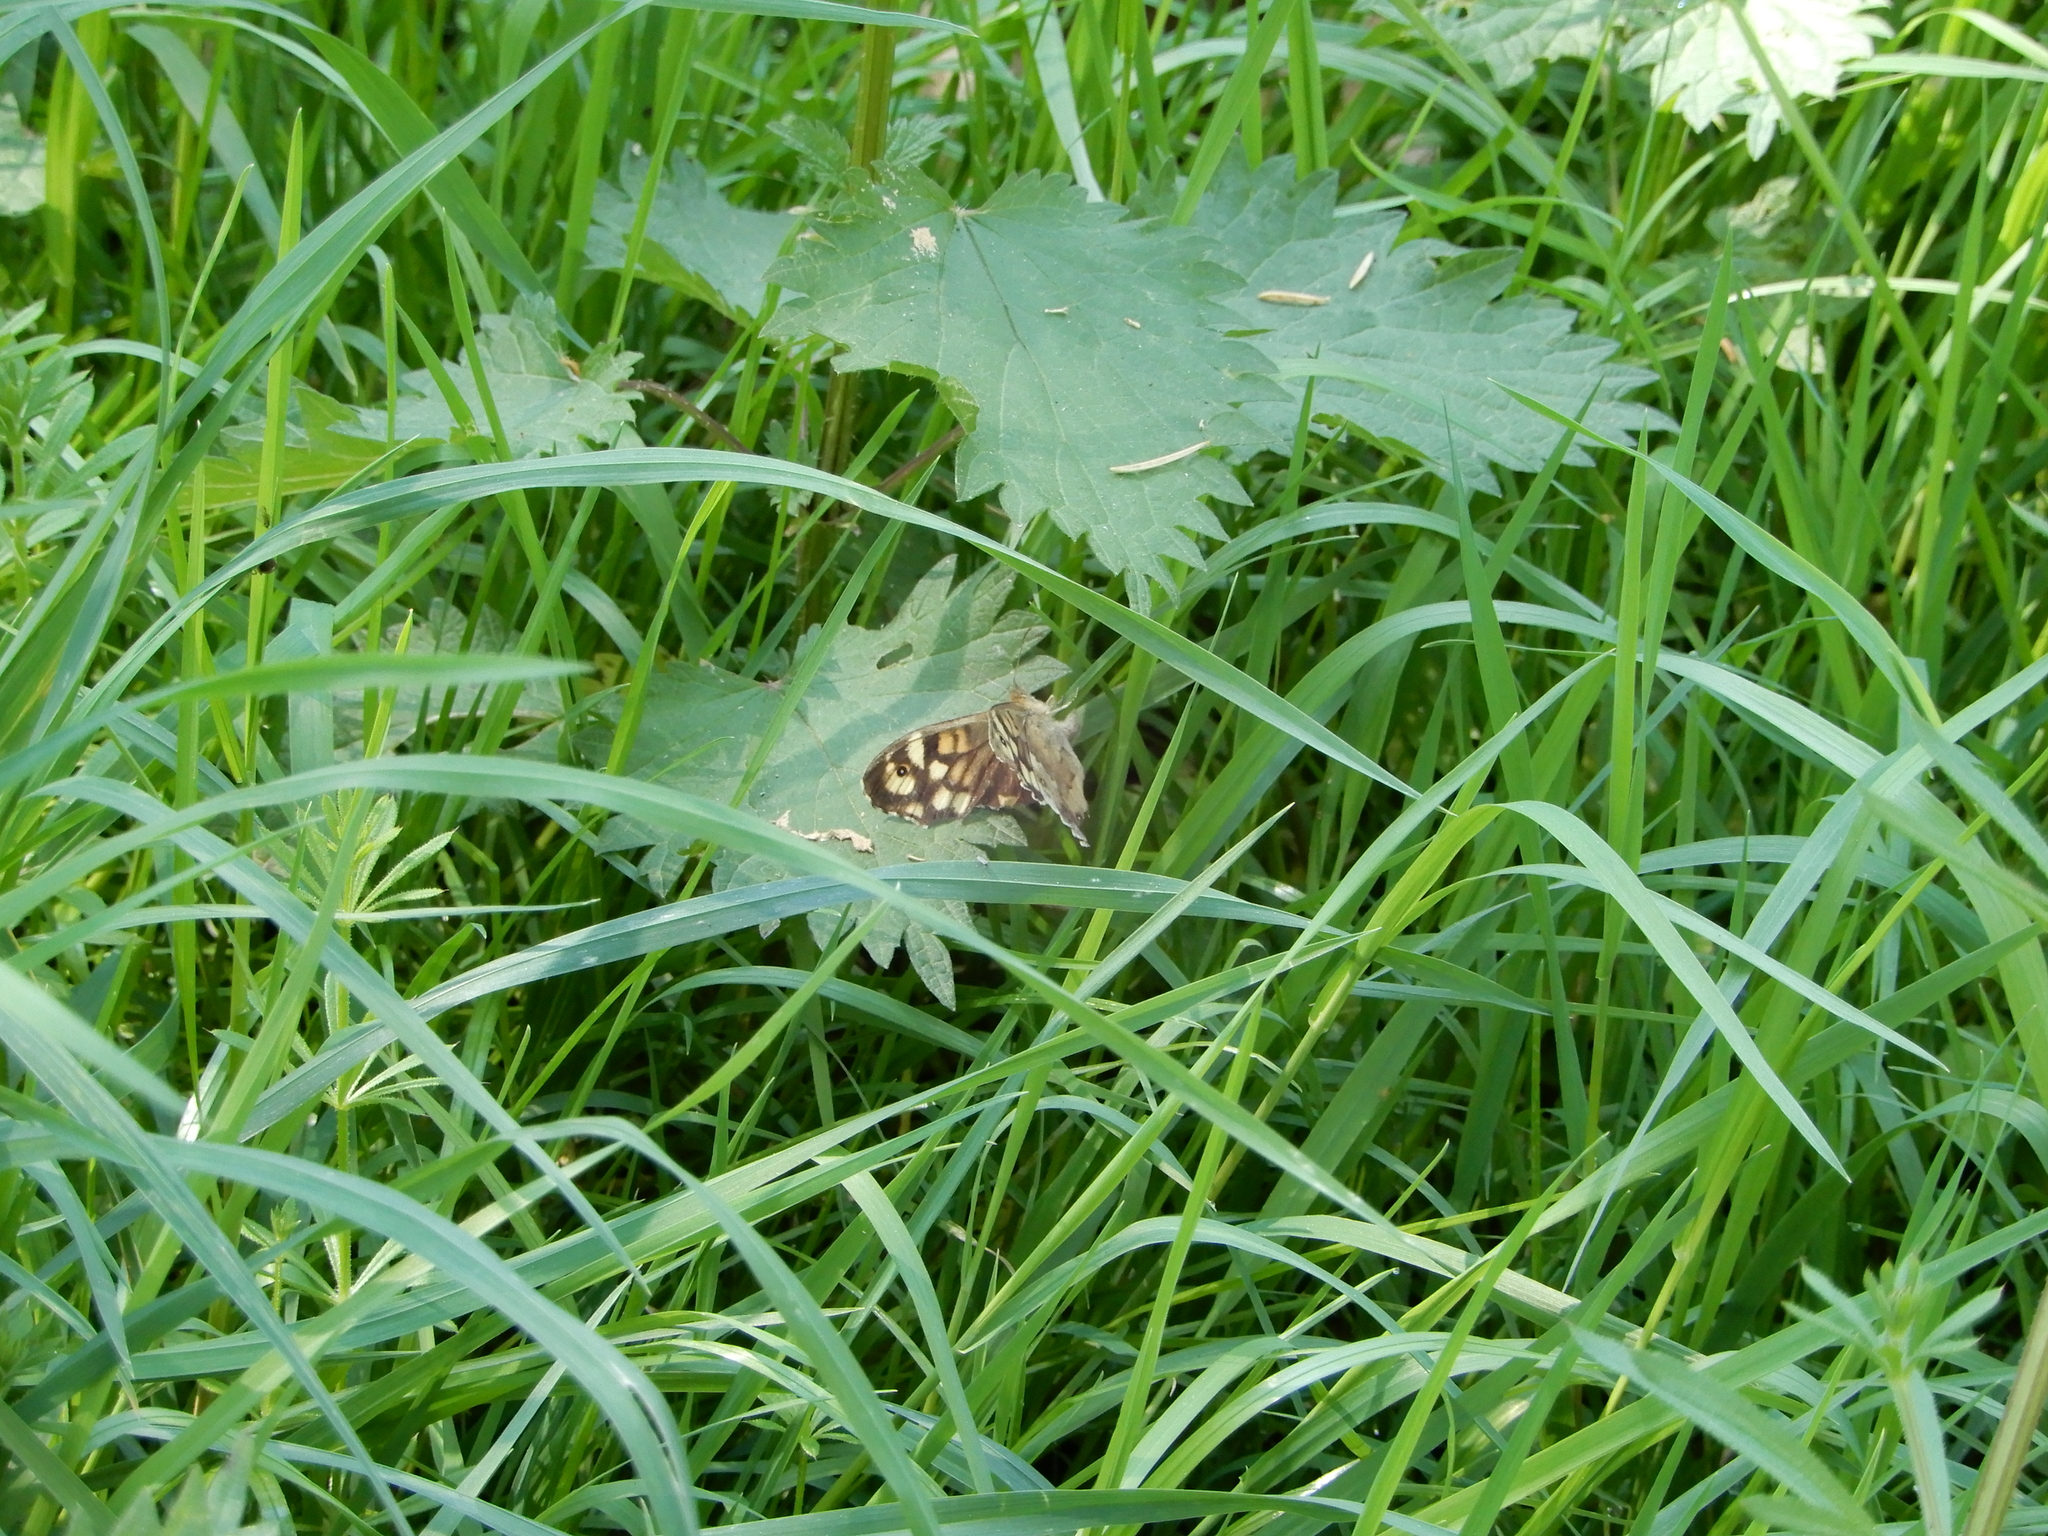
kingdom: Animalia
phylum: Arthropoda
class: Insecta
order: Lepidoptera
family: Nymphalidae
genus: Pararge
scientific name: Pararge aegeria
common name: Speckled wood
